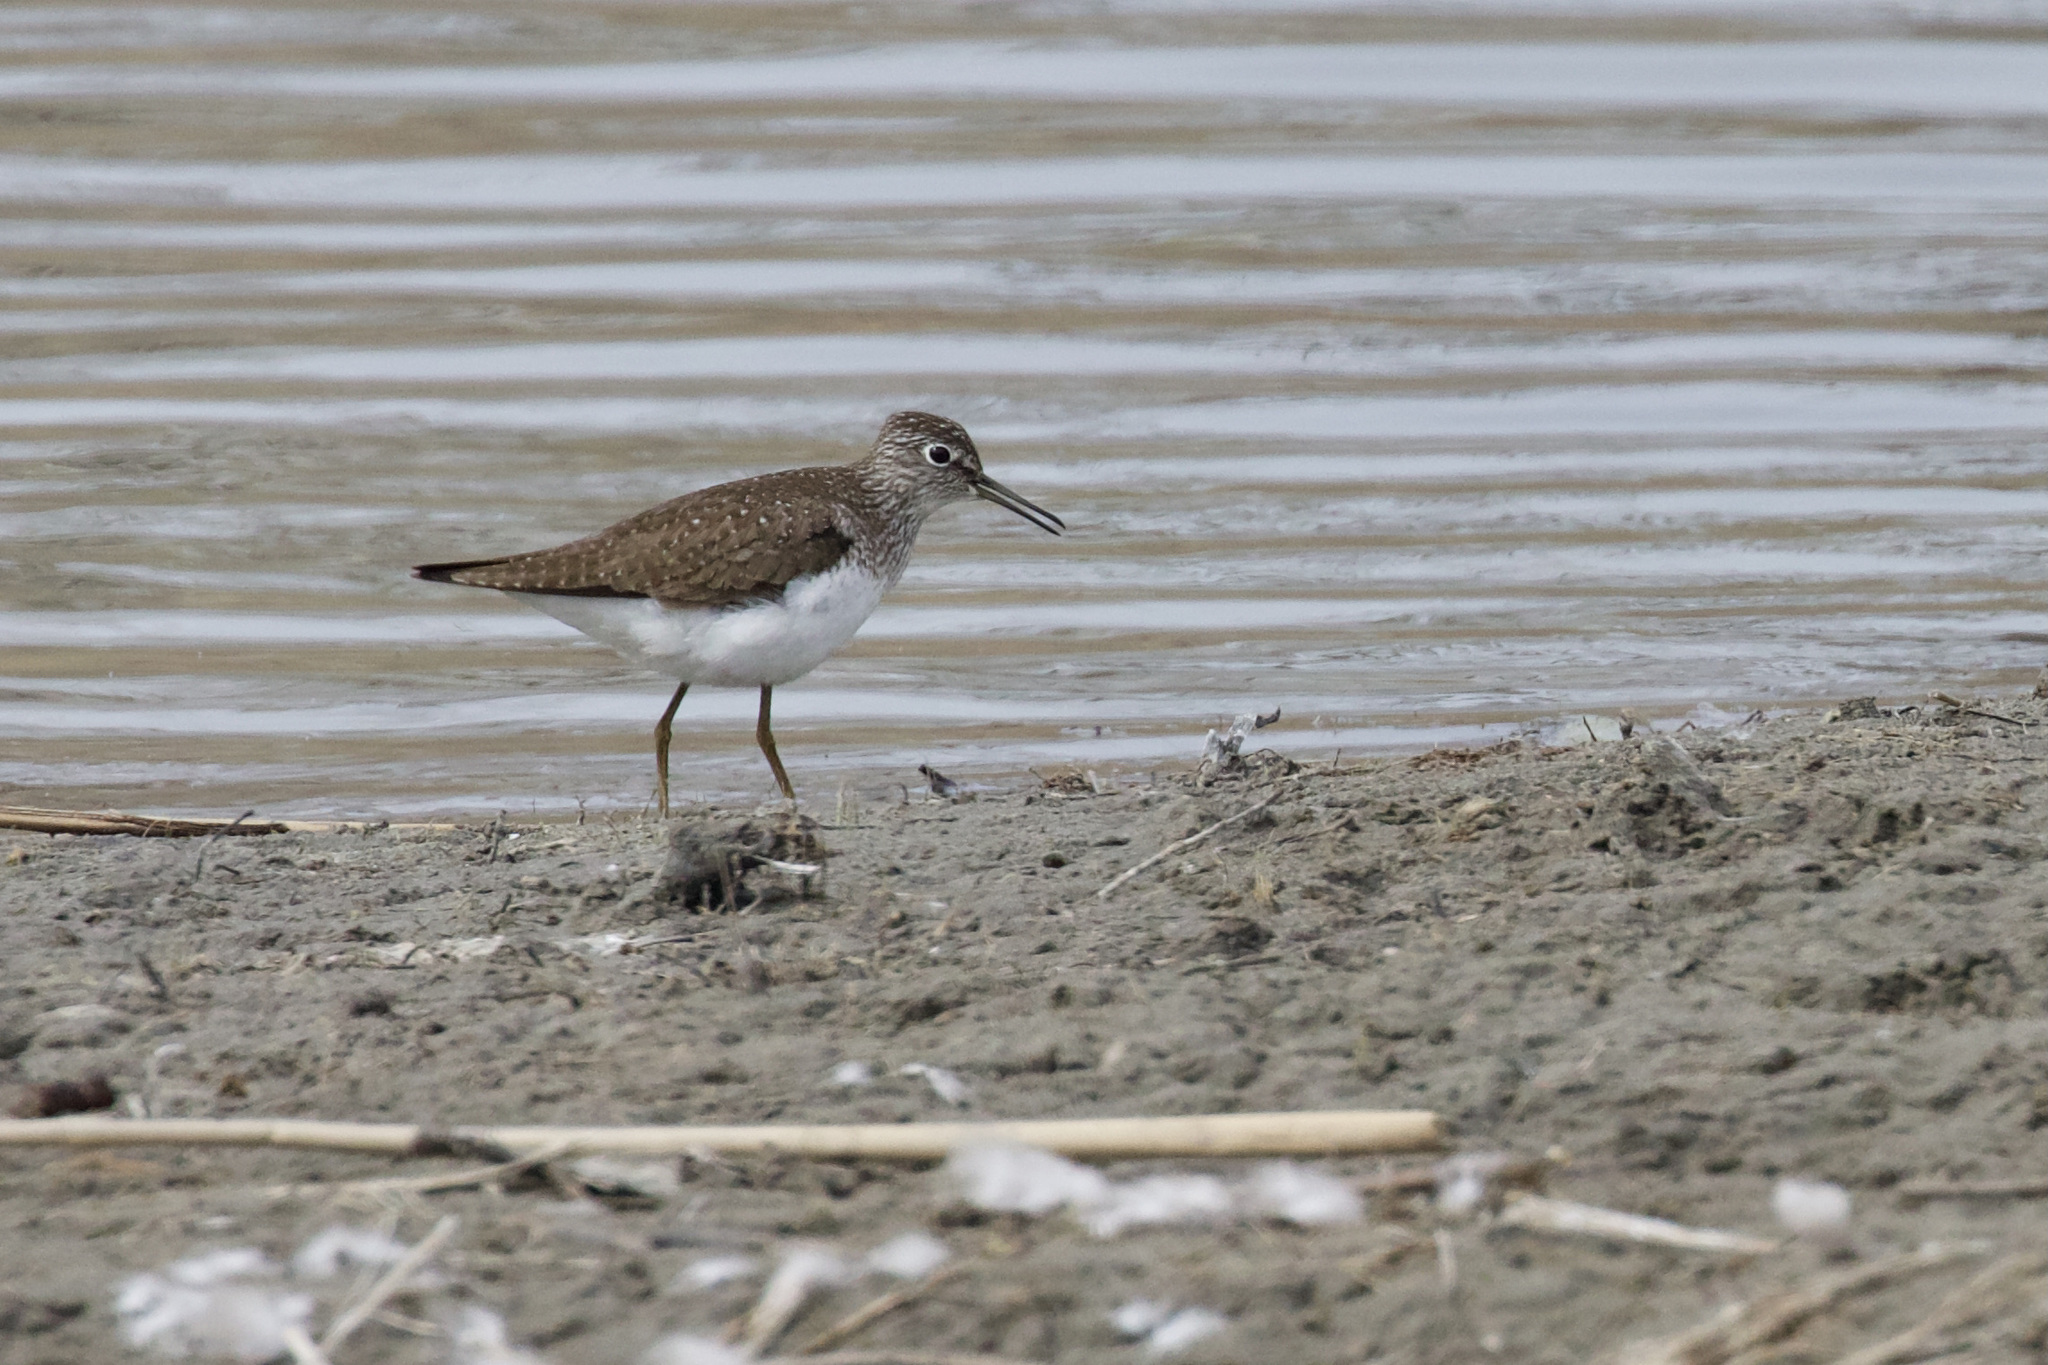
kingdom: Animalia
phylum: Chordata
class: Aves
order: Charadriiformes
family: Scolopacidae
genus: Tringa
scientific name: Tringa solitaria
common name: Solitary sandpiper
